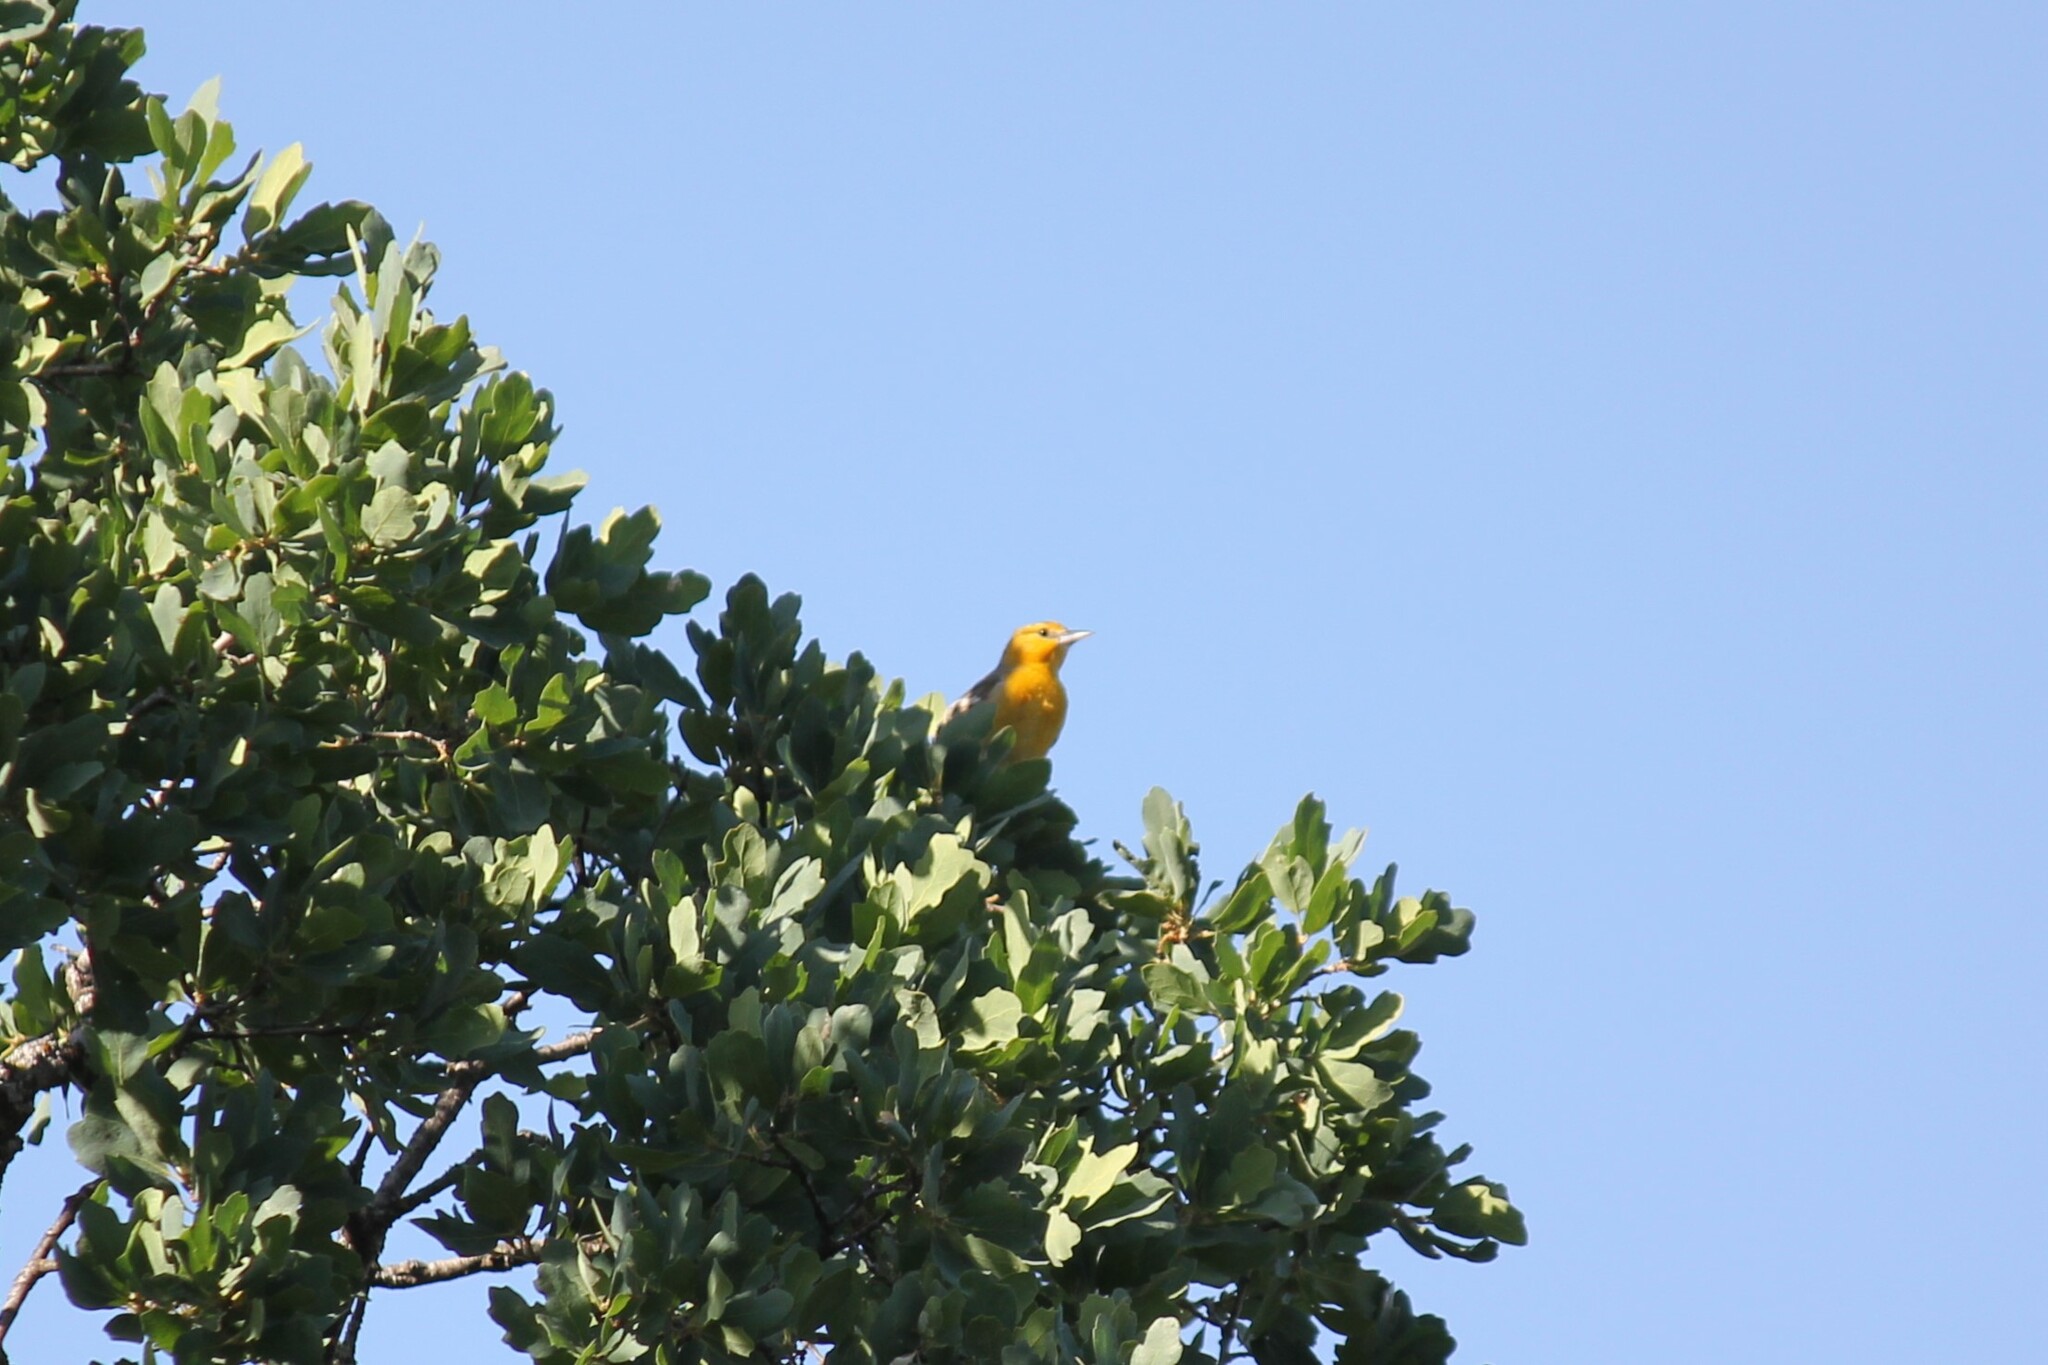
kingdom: Animalia
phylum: Chordata
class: Aves
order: Passeriformes
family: Icteridae
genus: Icterus
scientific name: Icterus bullockii
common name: Bullock's oriole
